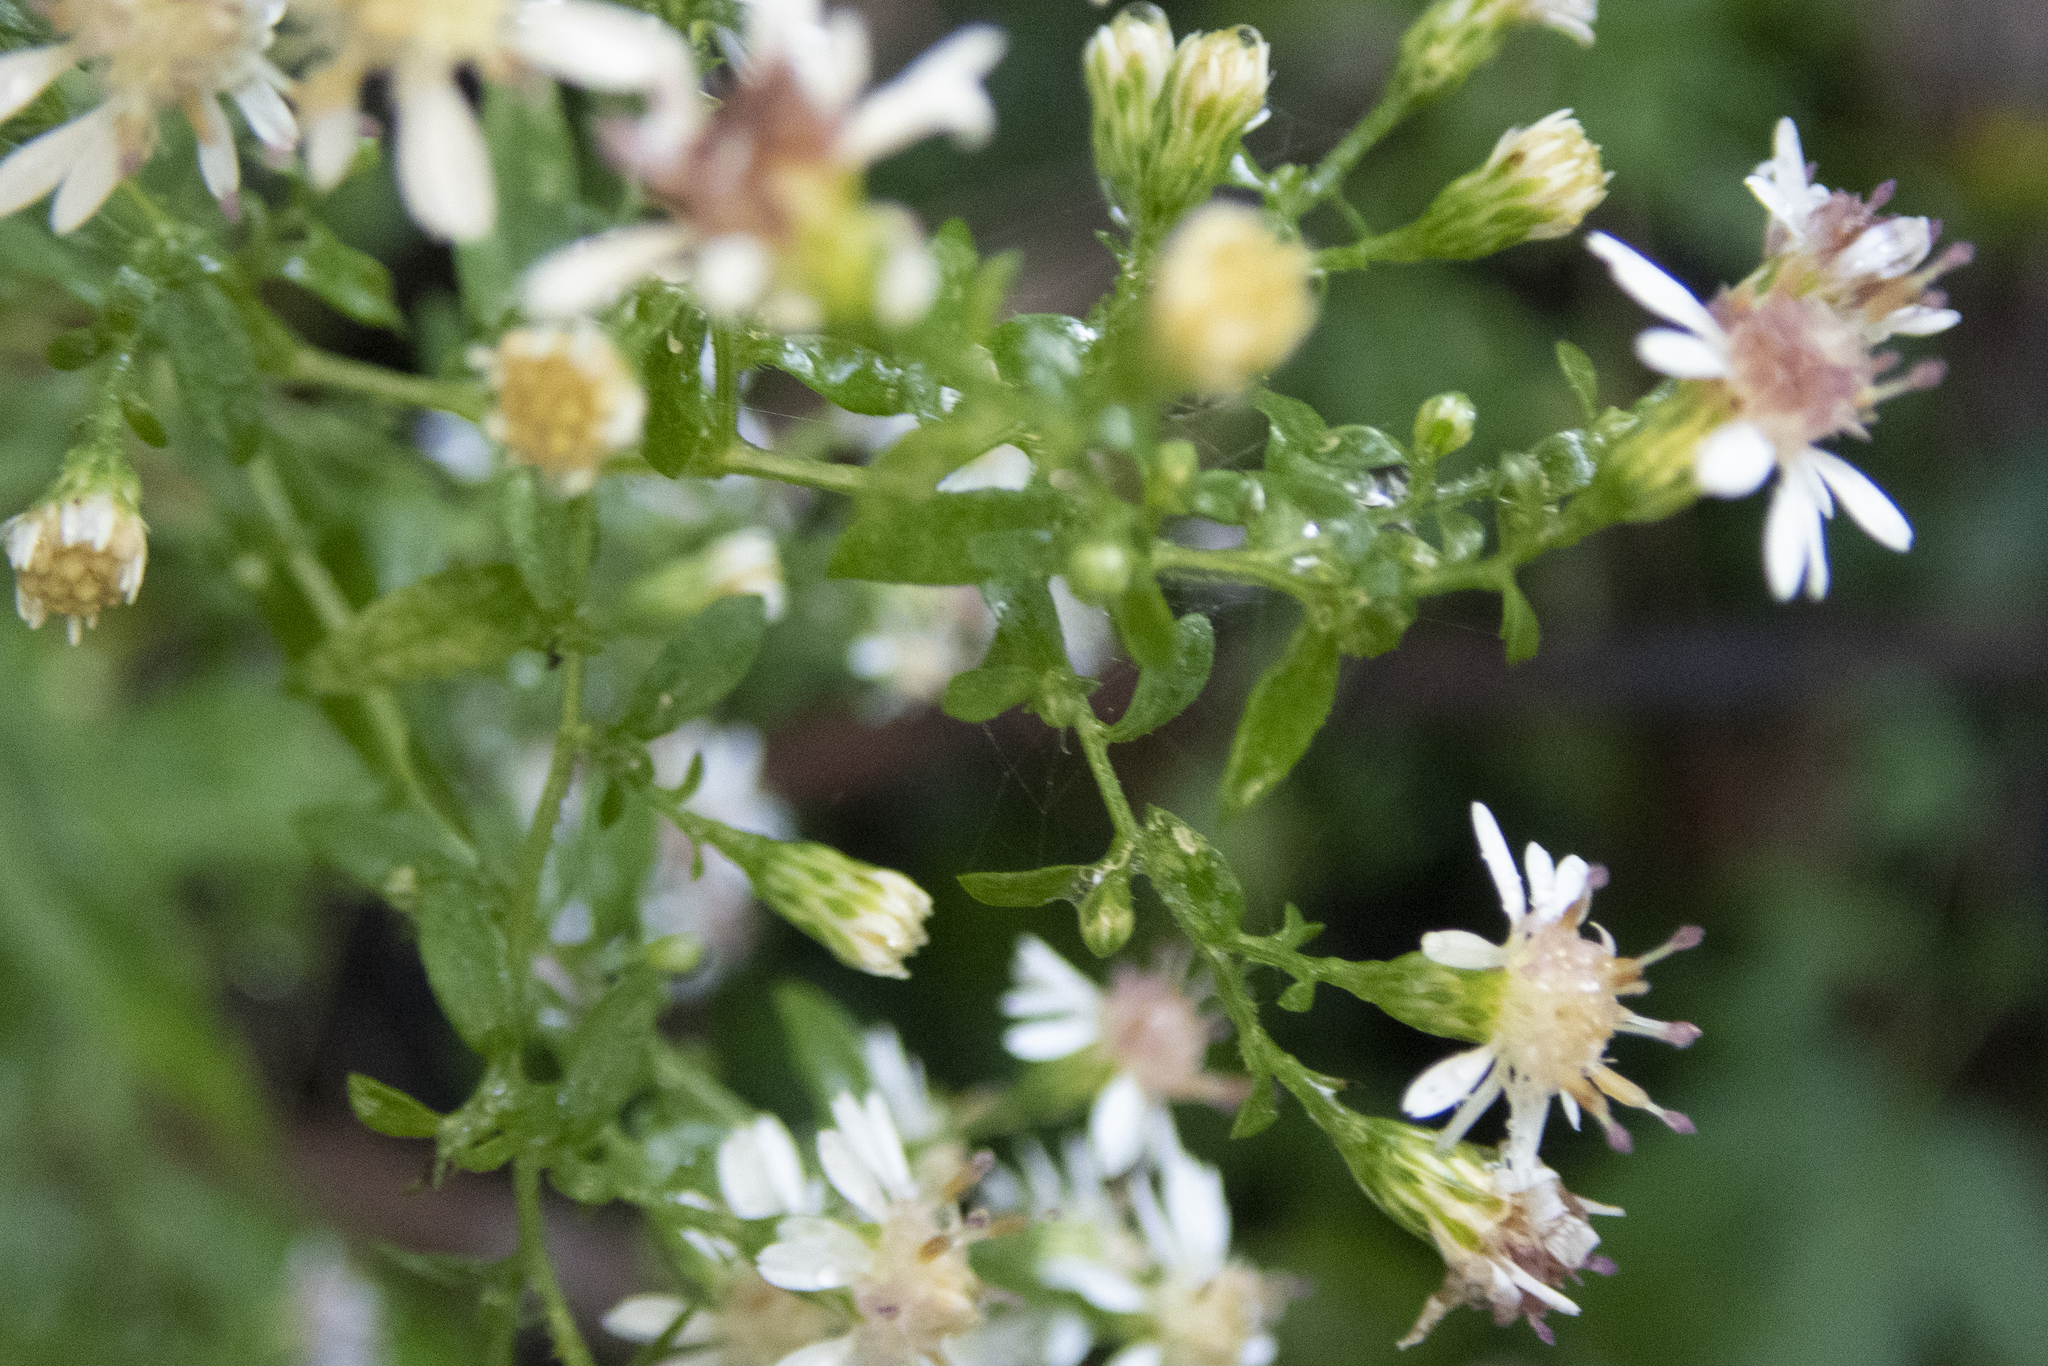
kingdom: Plantae
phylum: Tracheophyta
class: Magnoliopsida
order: Asterales
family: Asteraceae
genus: Symphyotrichum
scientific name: Symphyotrichum lateriflorum
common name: Calico aster
